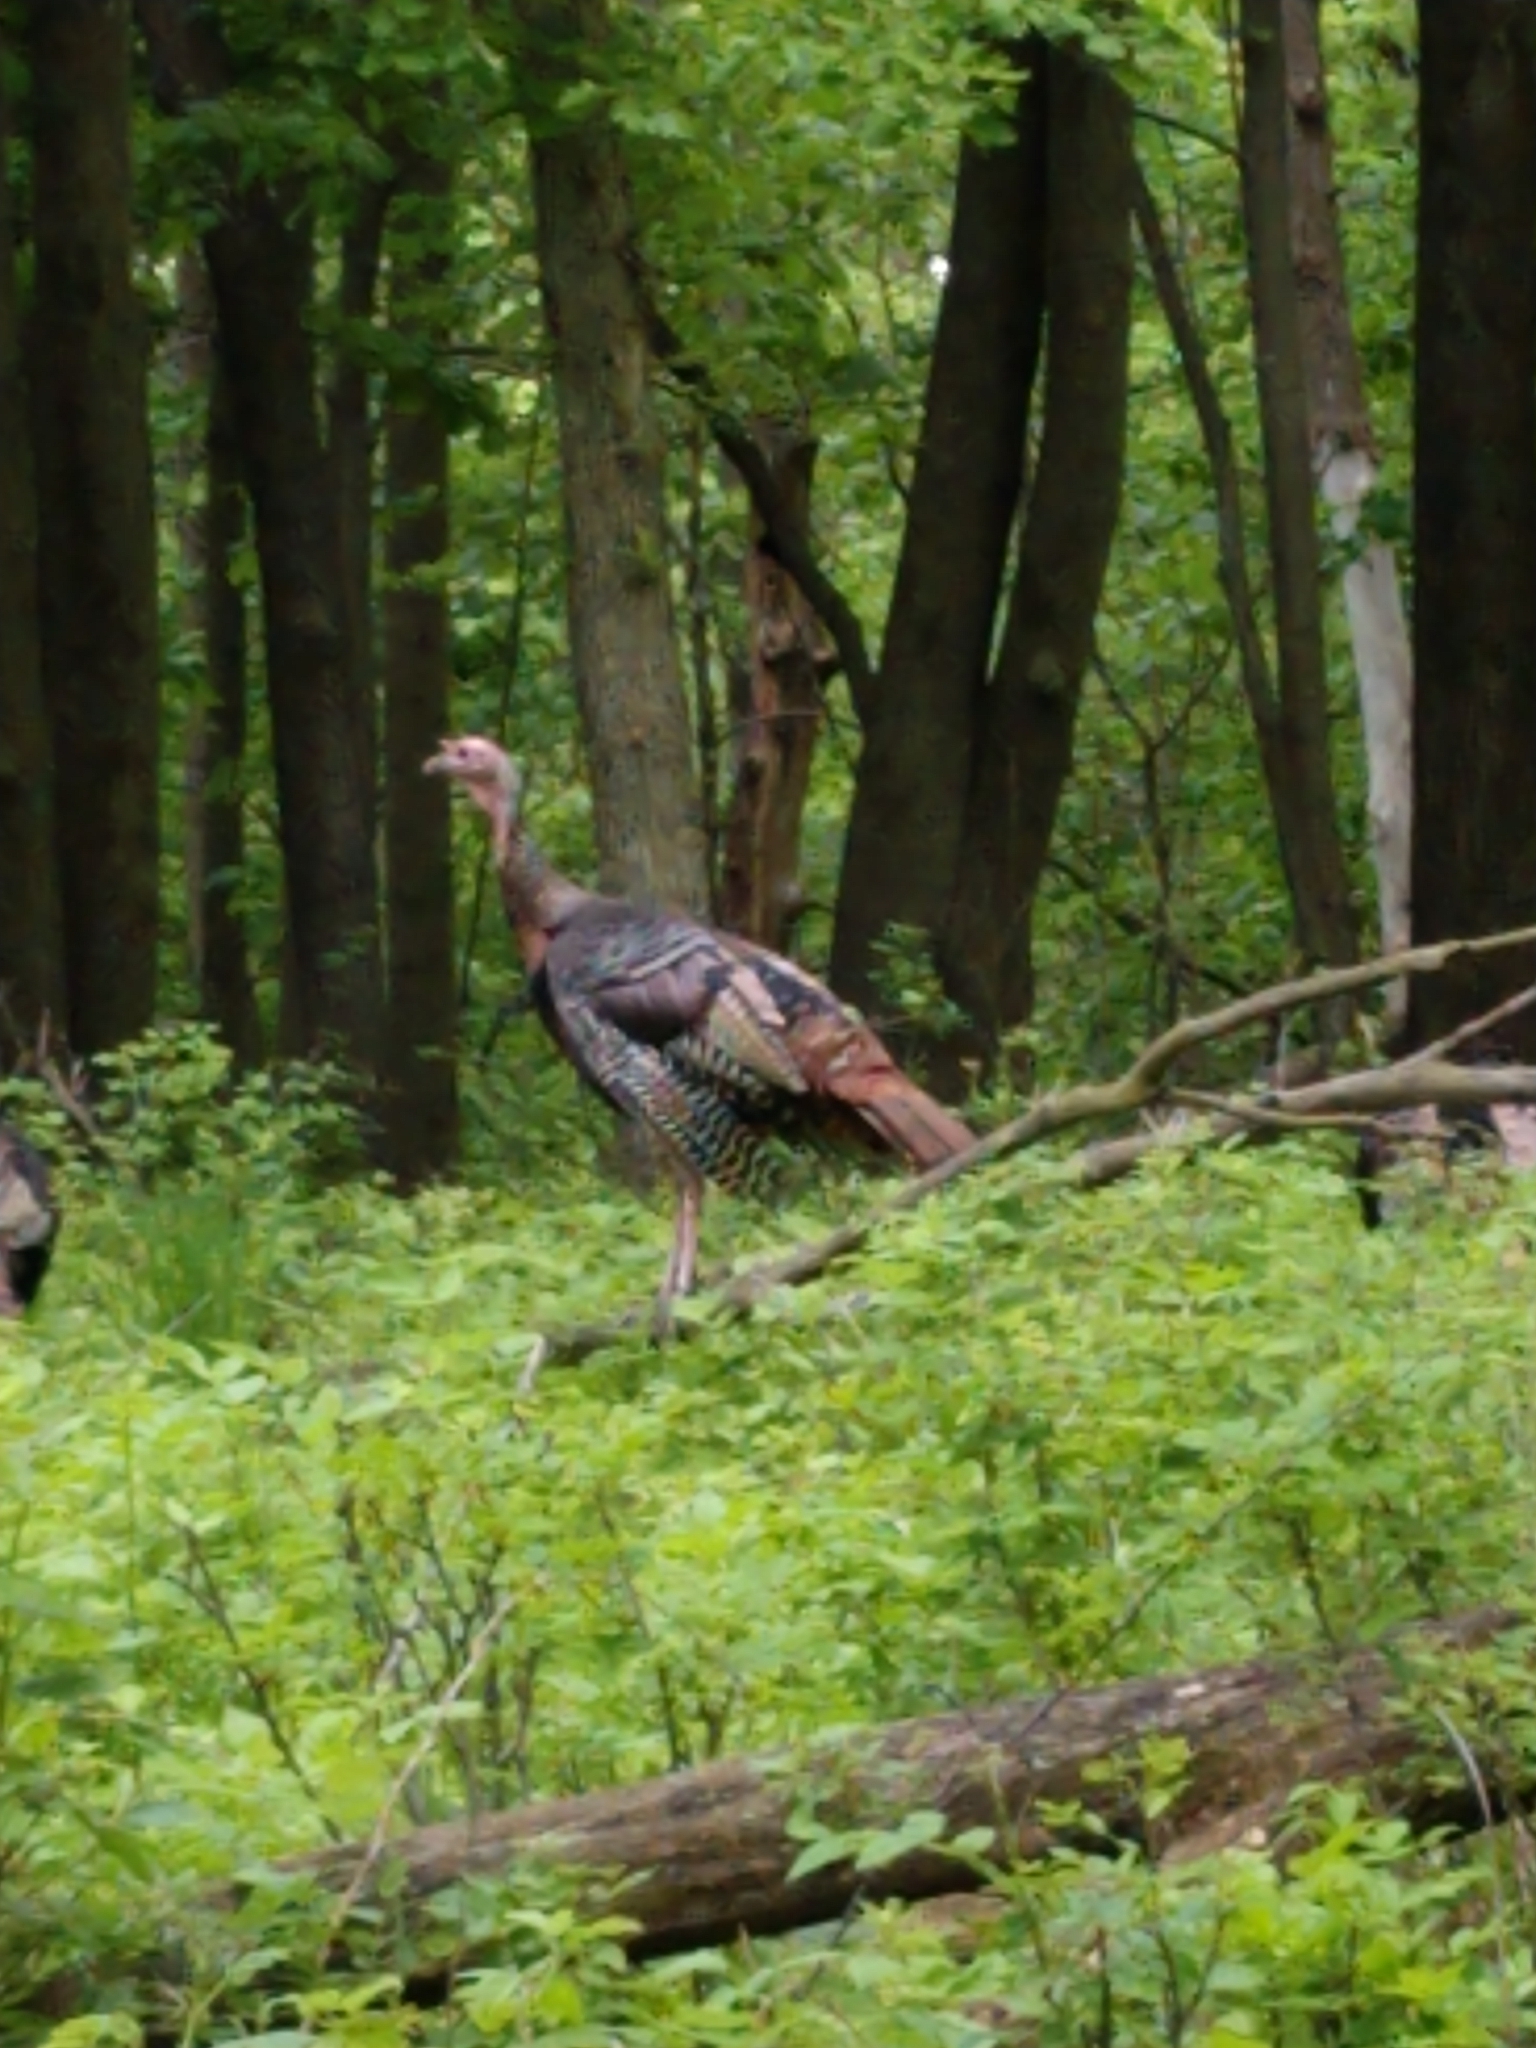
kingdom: Animalia
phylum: Chordata
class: Aves
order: Galliformes
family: Phasianidae
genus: Meleagris
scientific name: Meleagris gallopavo
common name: Wild turkey
